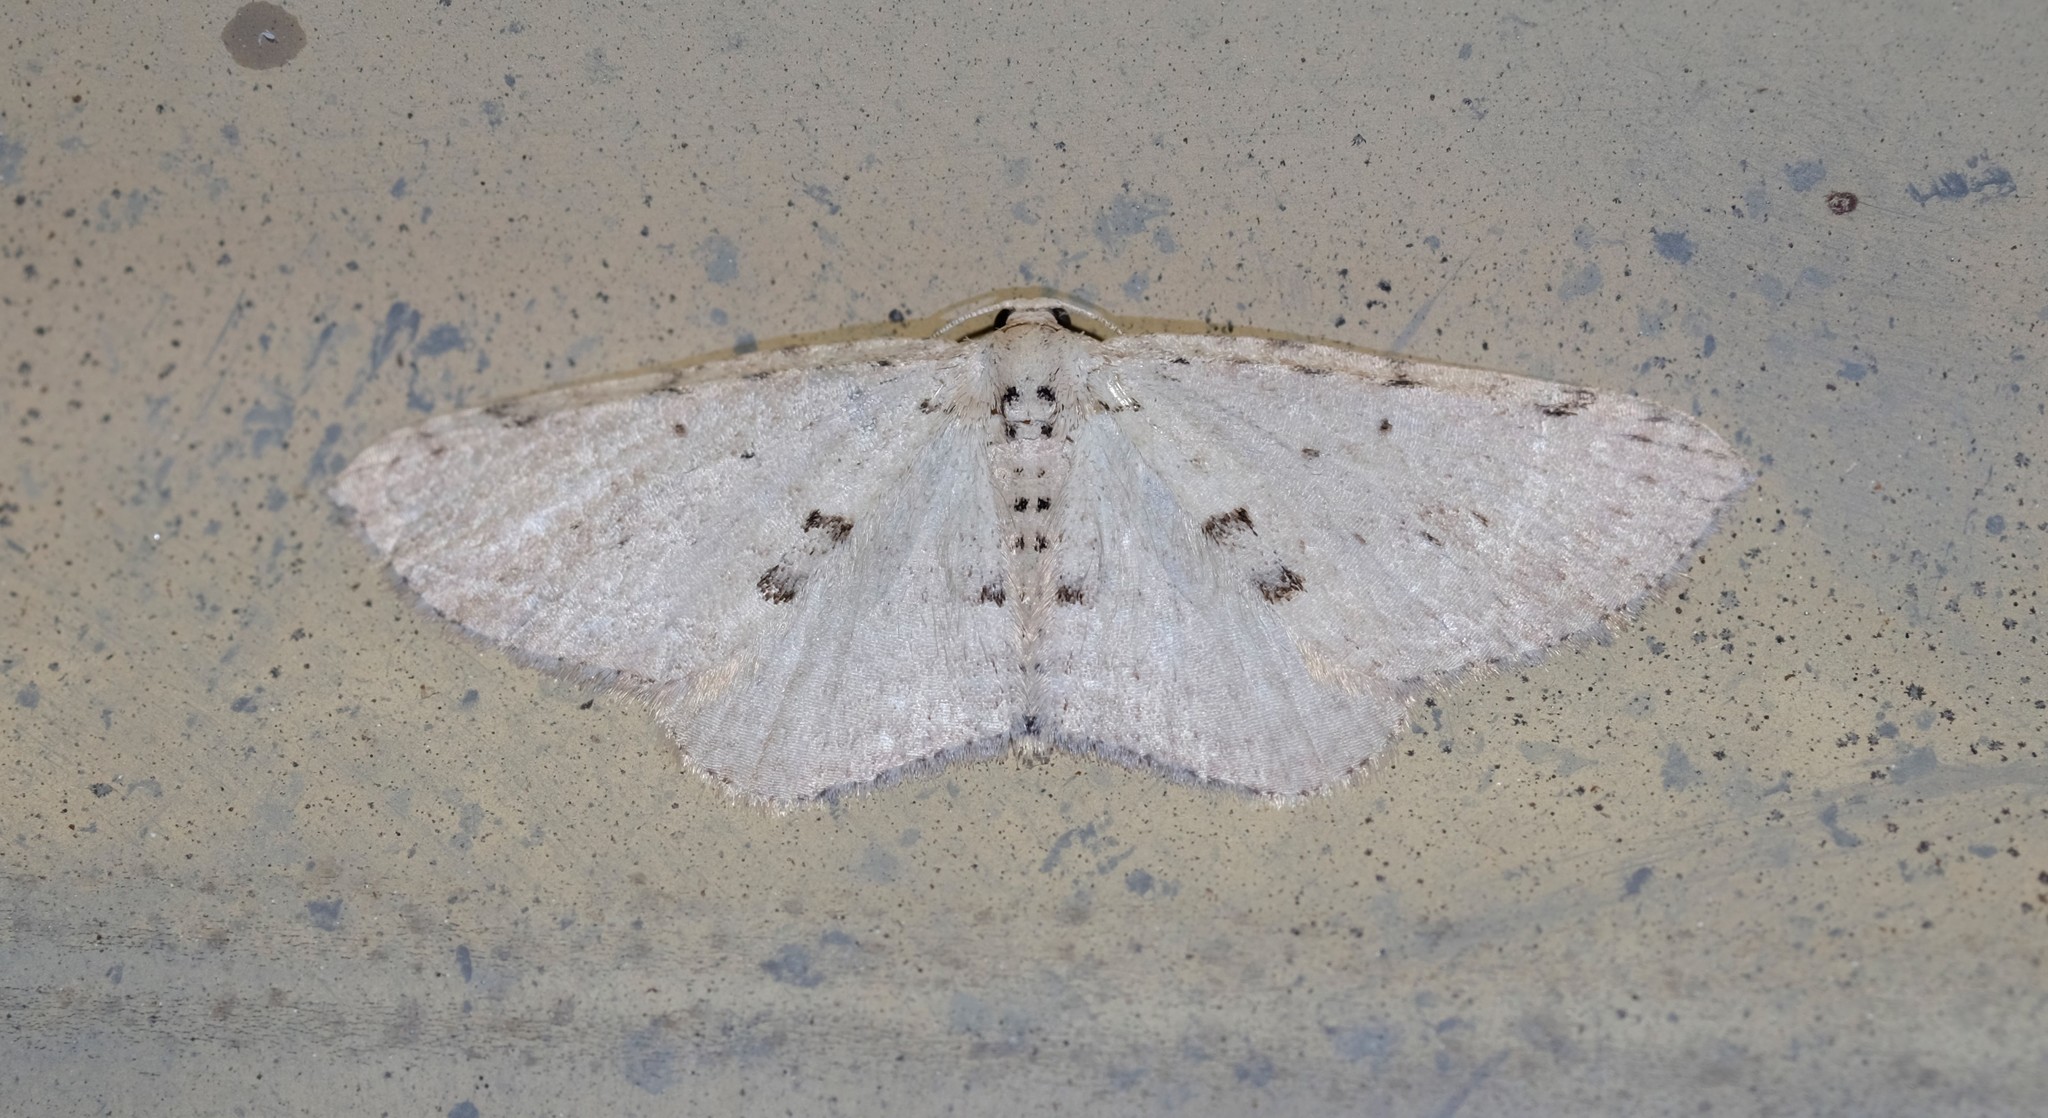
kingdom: Animalia
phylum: Arthropoda
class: Insecta
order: Lepidoptera
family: Geometridae
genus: Poecilasthena
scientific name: Poecilasthena scoliota
